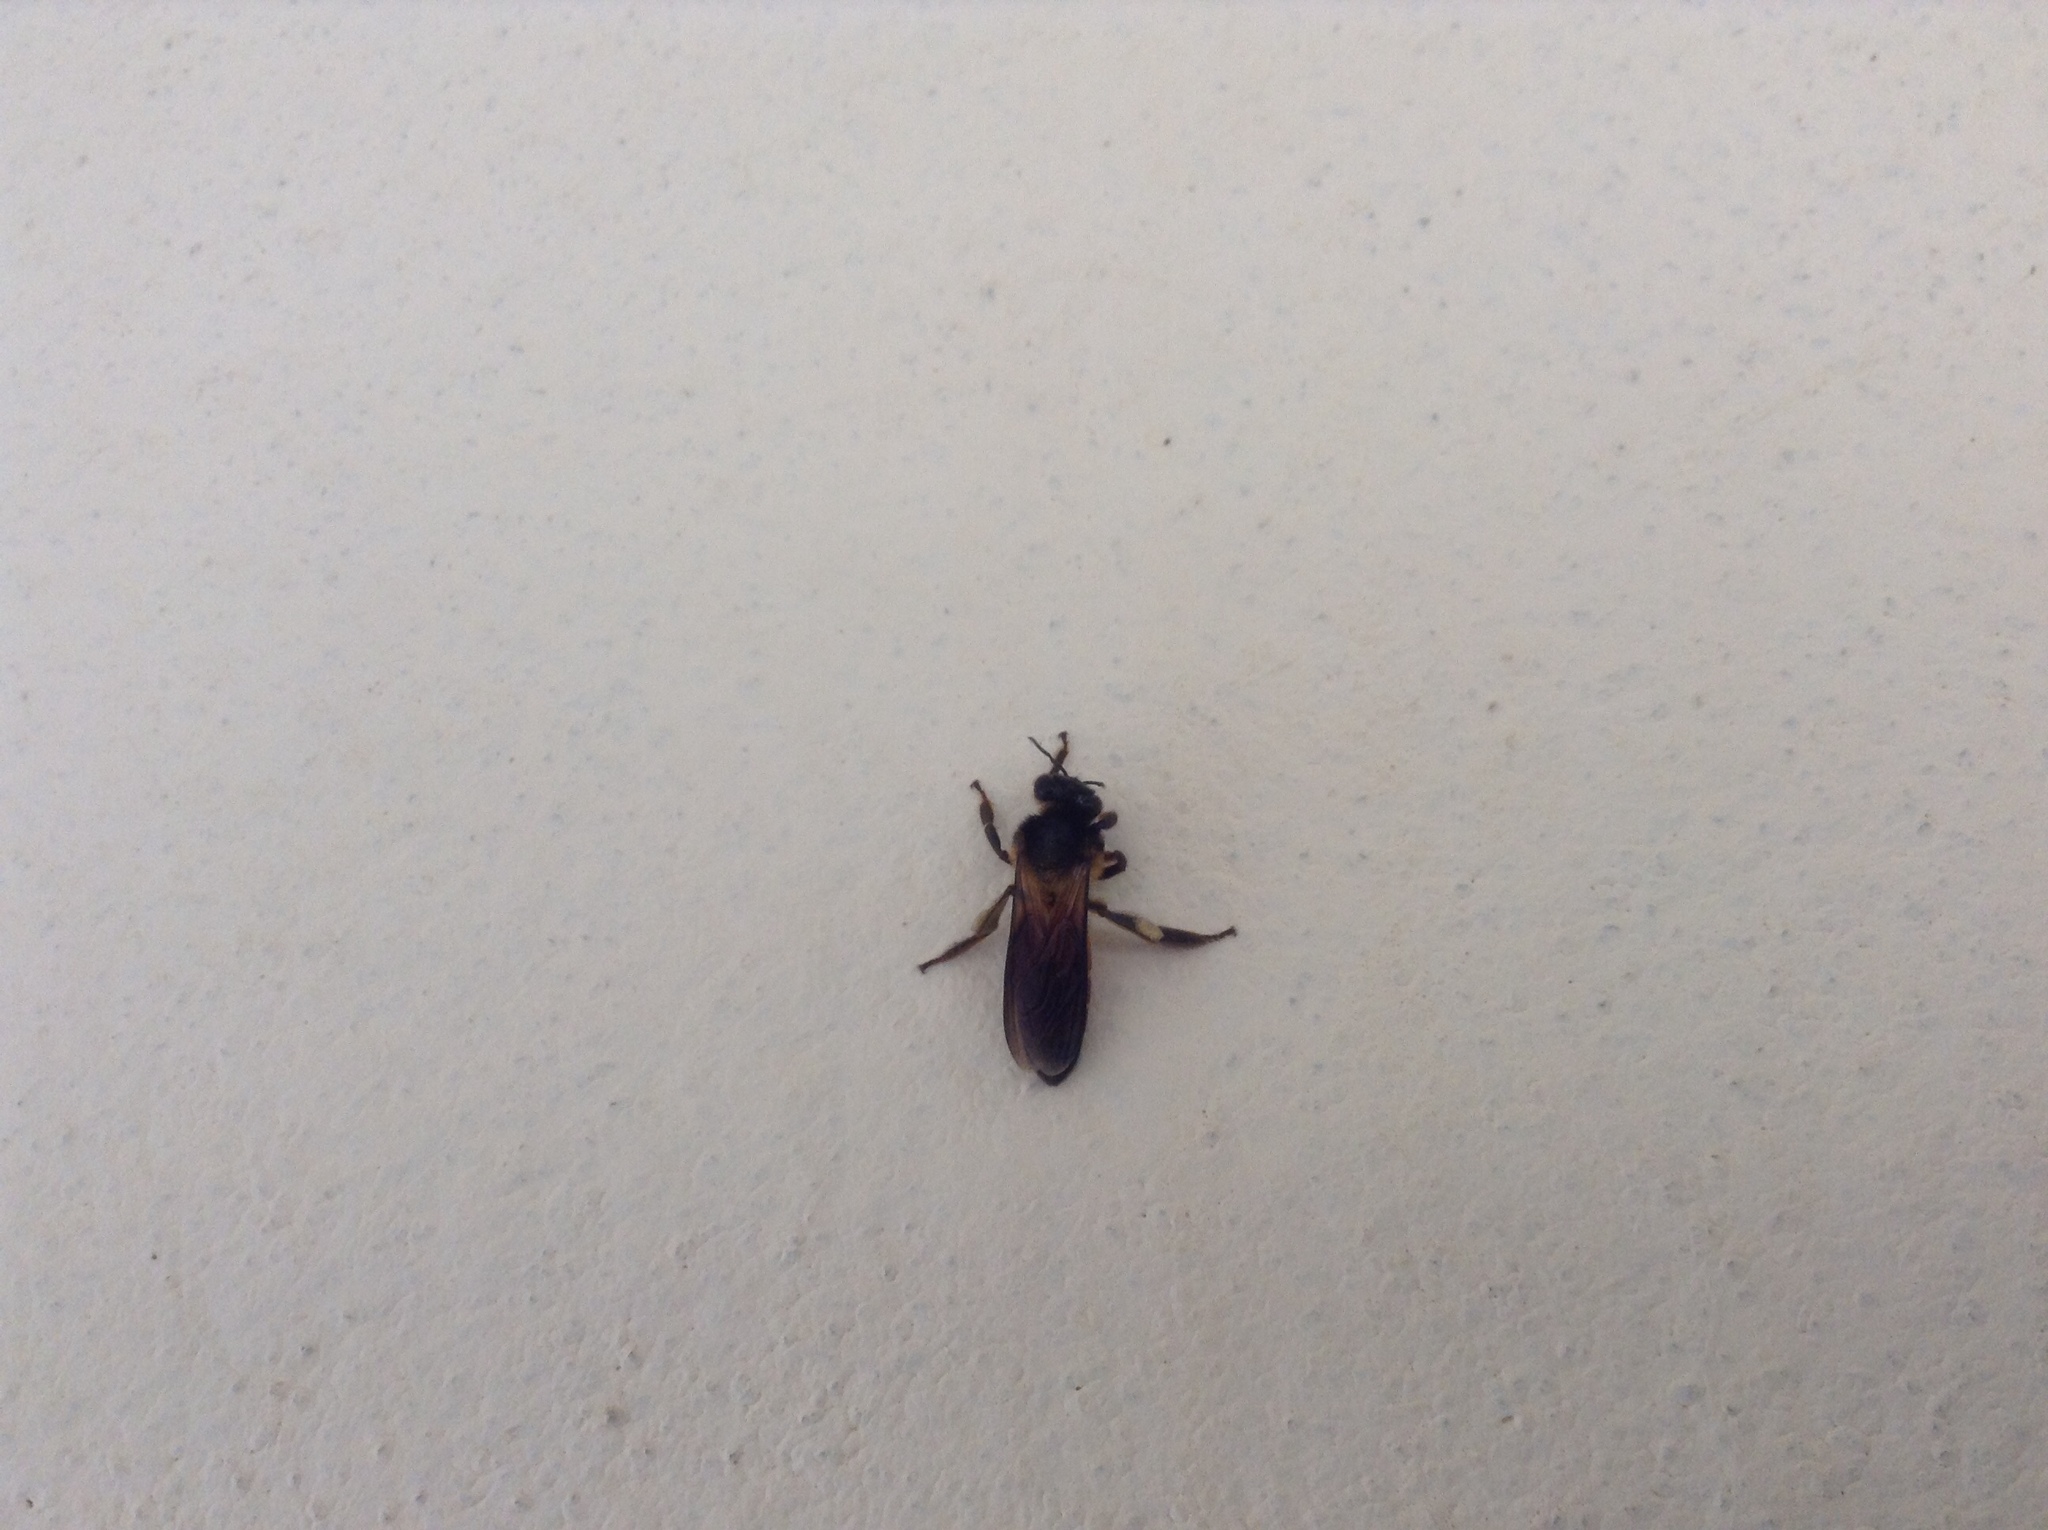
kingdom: Animalia
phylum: Arthropoda
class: Insecta
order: Hymenoptera
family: Apidae
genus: Apis
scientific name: Apis dorsata
